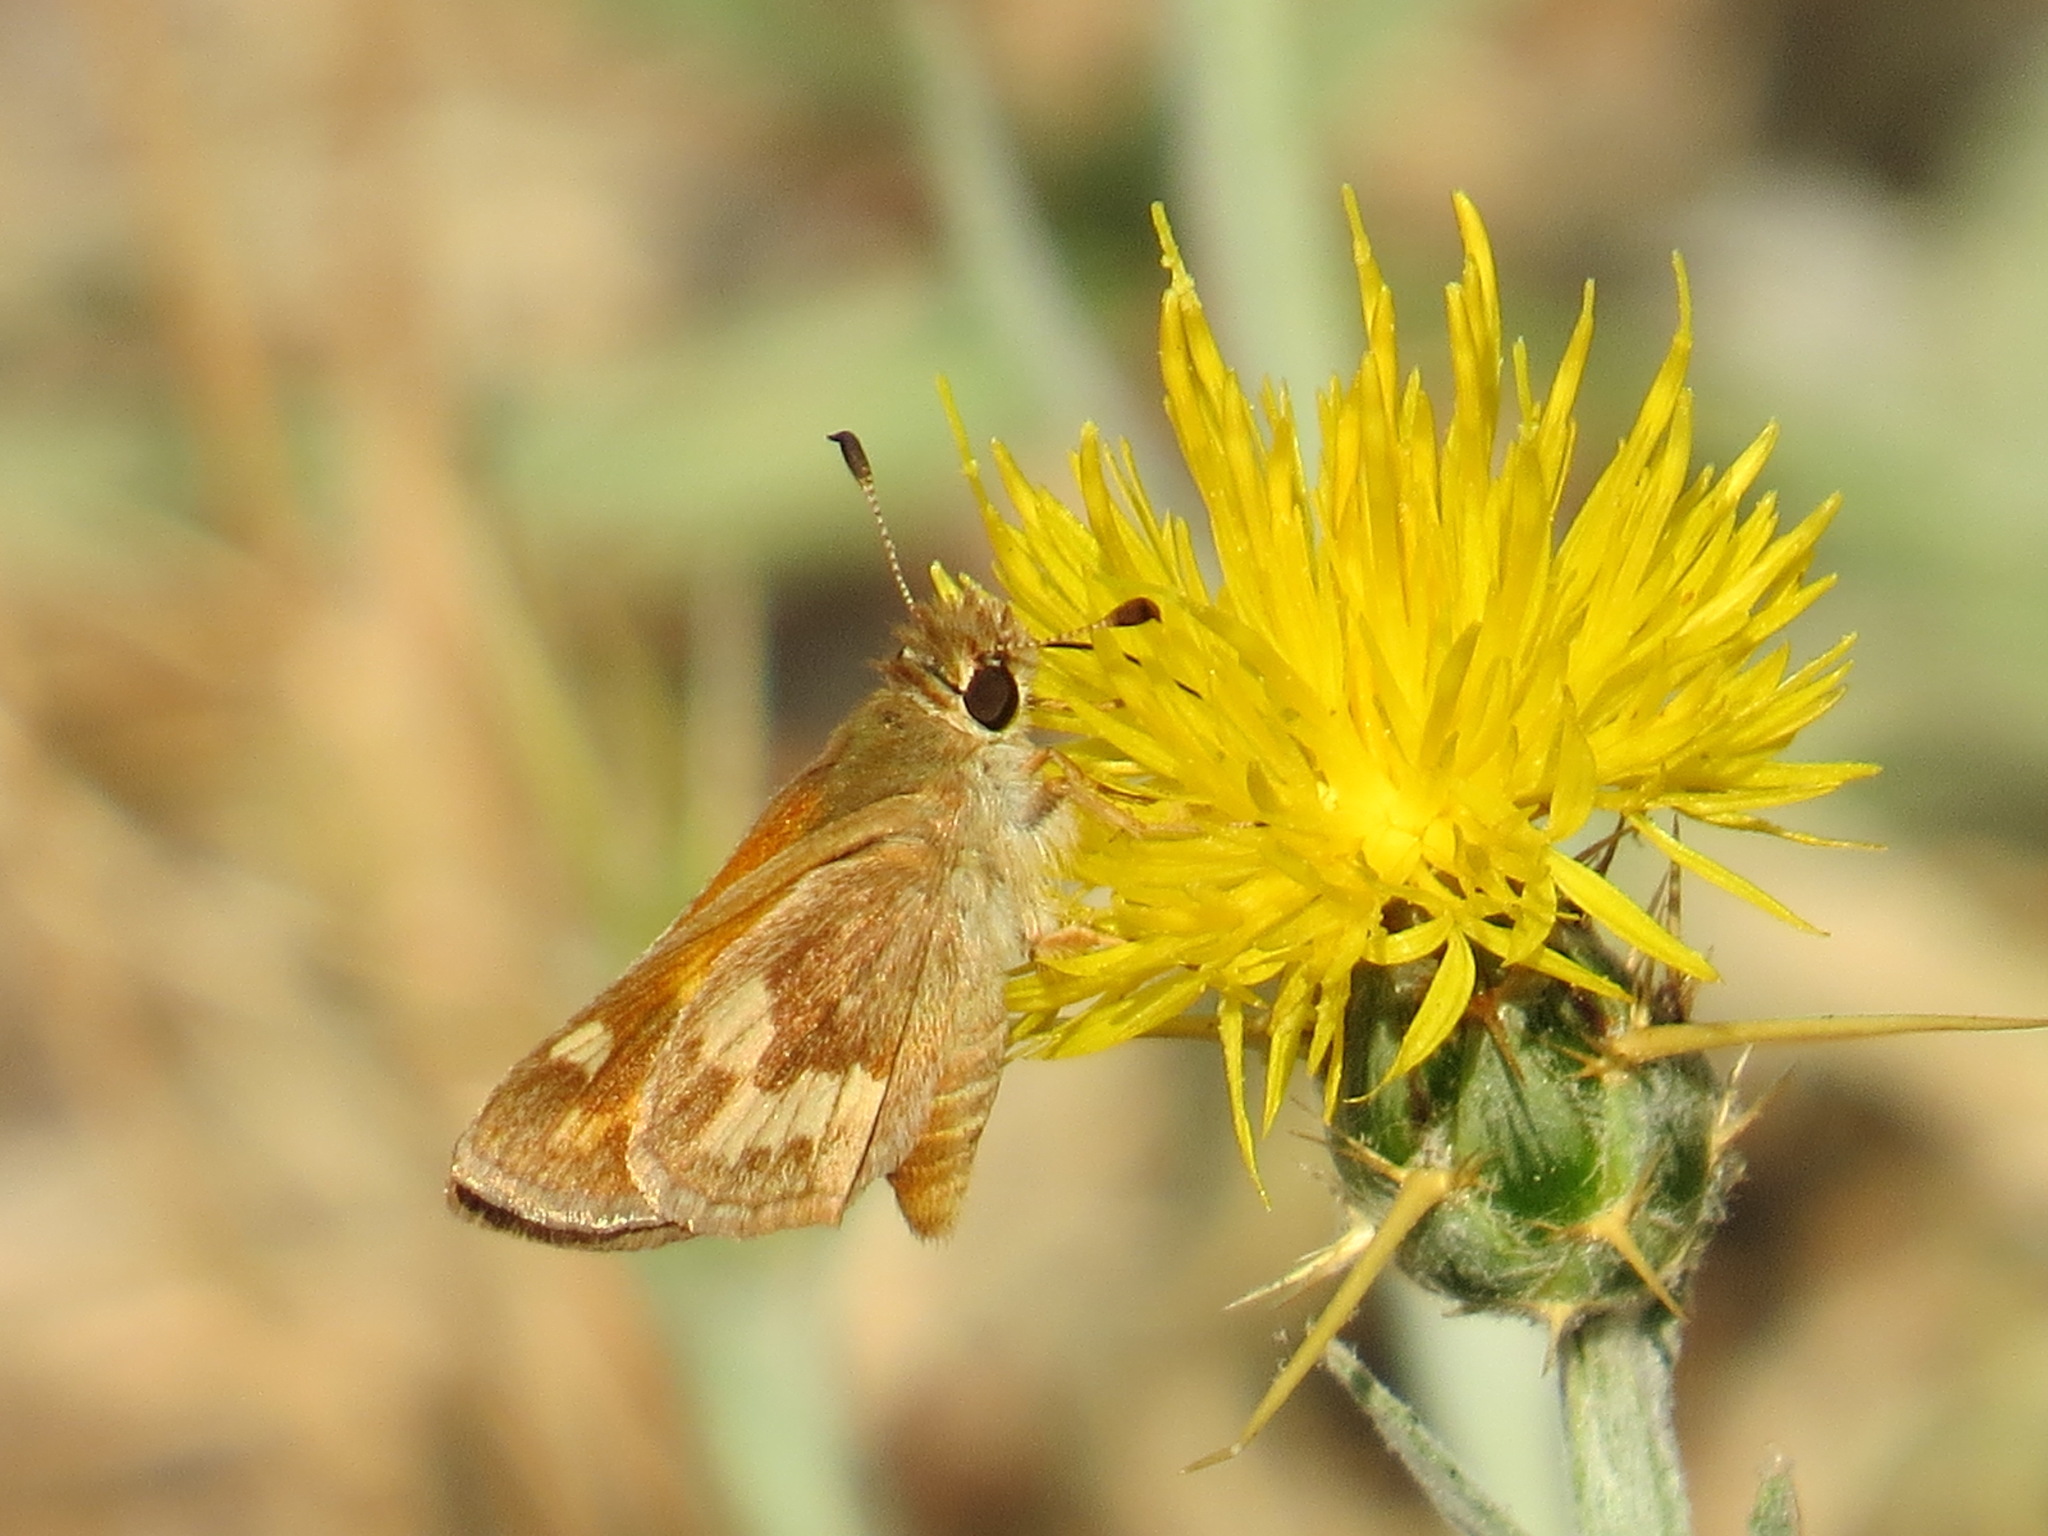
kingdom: Animalia
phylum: Arthropoda
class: Insecta
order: Lepidoptera
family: Hesperiidae
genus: Ochlodes
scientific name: Ochlodes sylvanoides
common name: Woodland skipper
